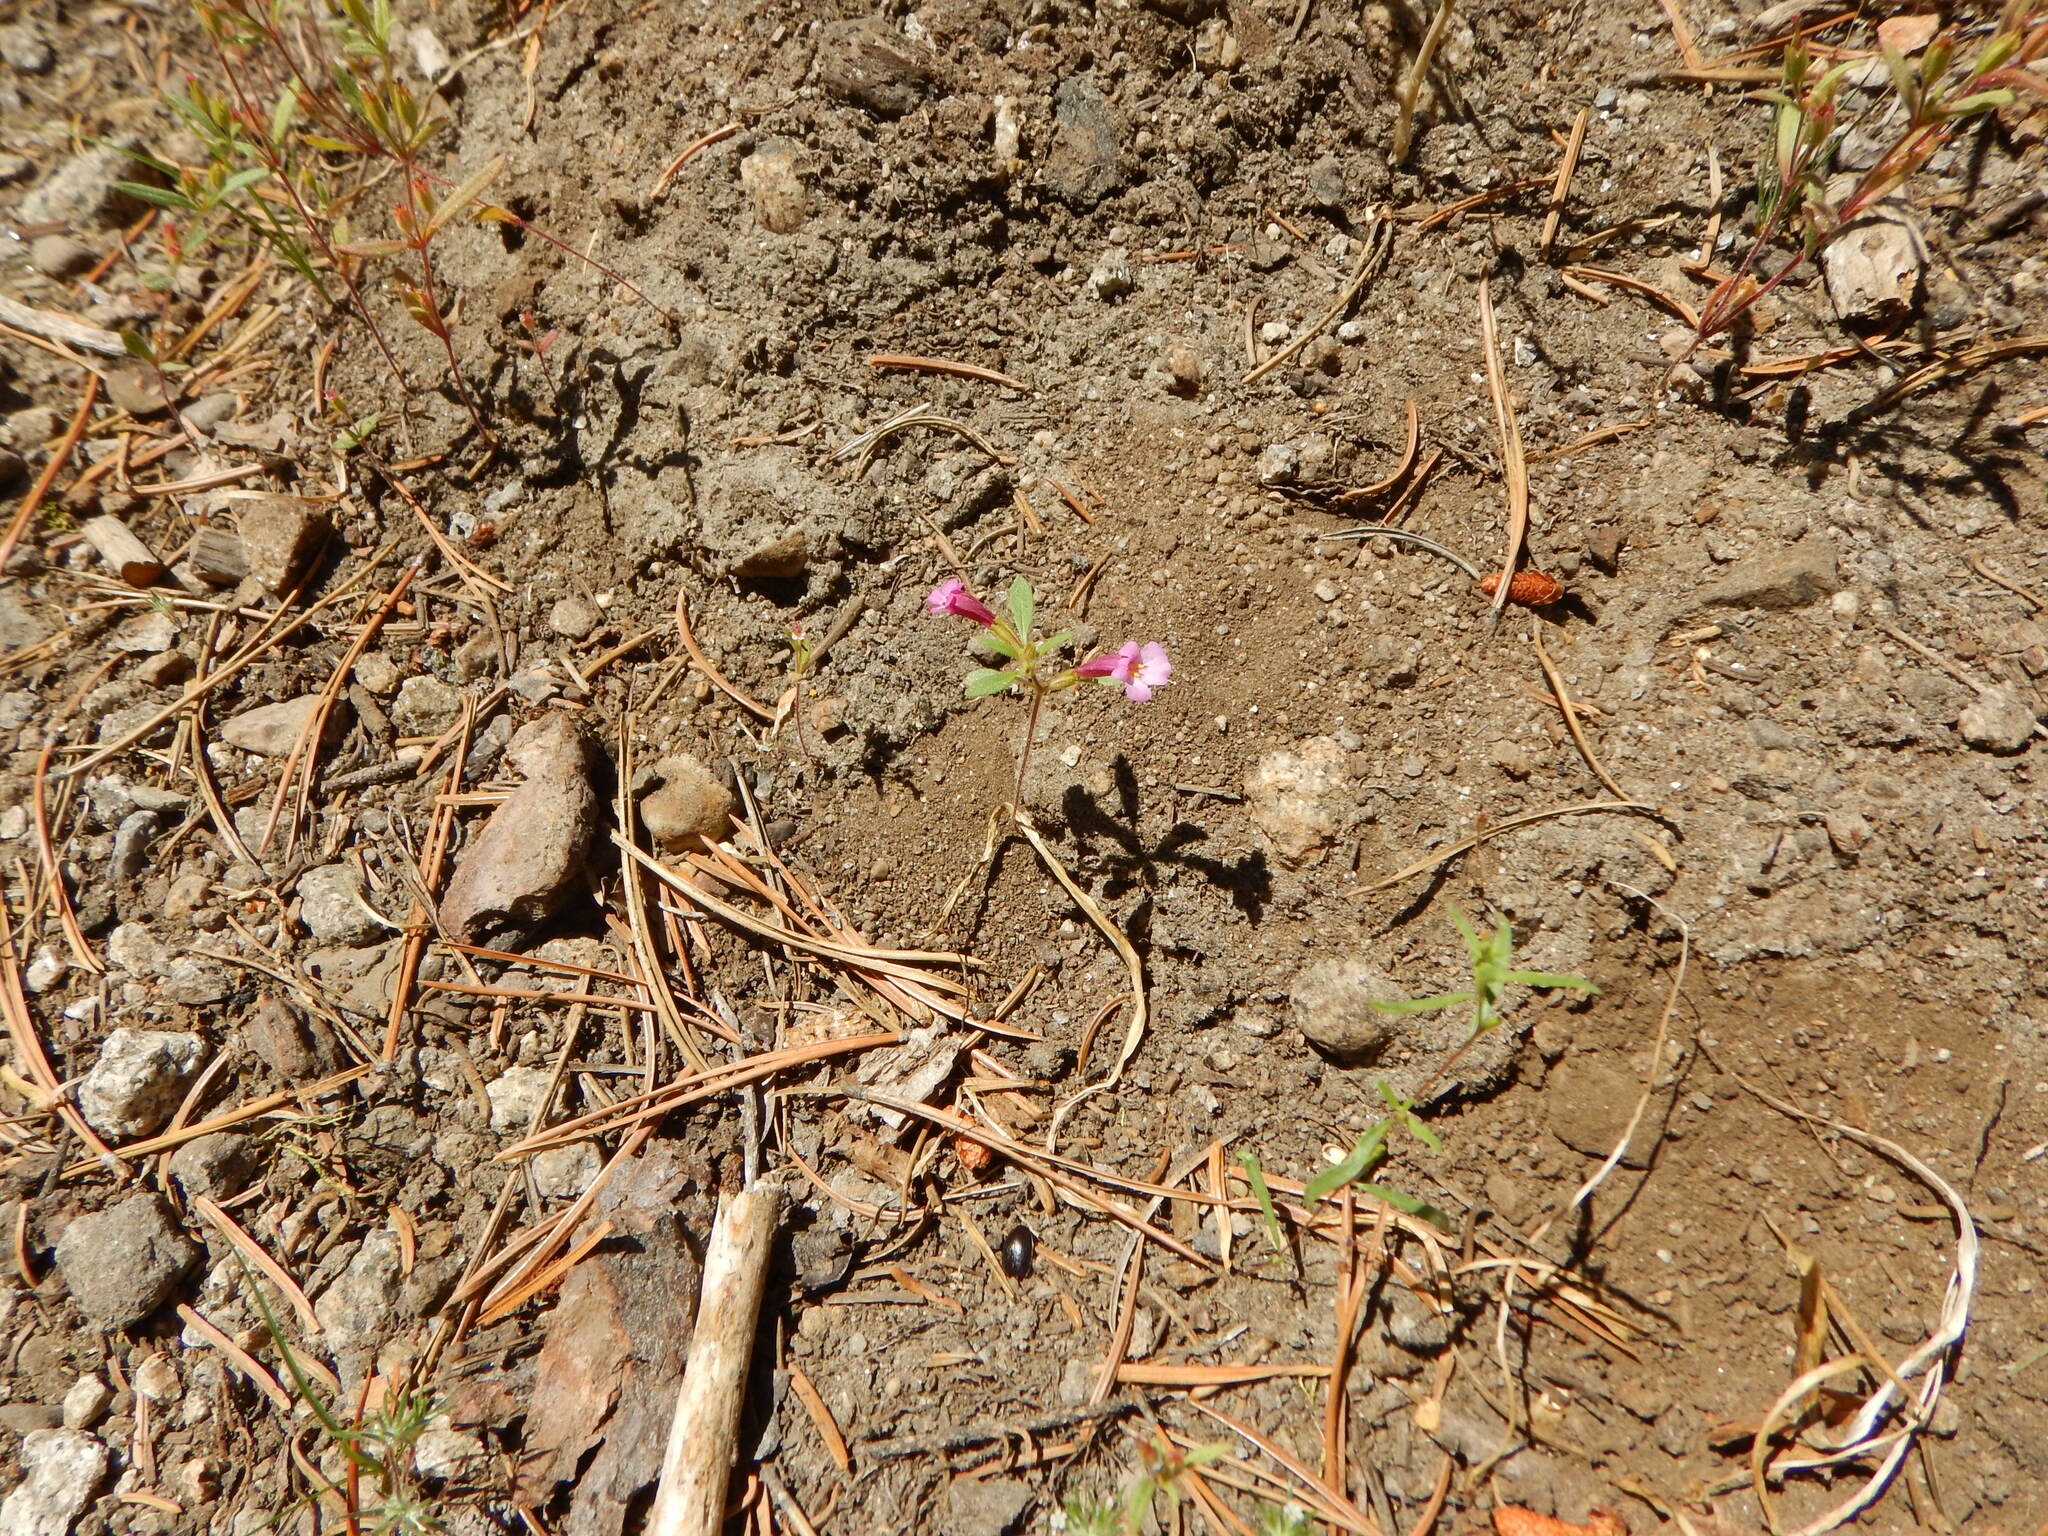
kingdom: Plantae
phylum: Tracheophyta
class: Magnoliopsida
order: Lamiales
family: Phrymaceae
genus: Diplacus
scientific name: Diplacus torreyi
